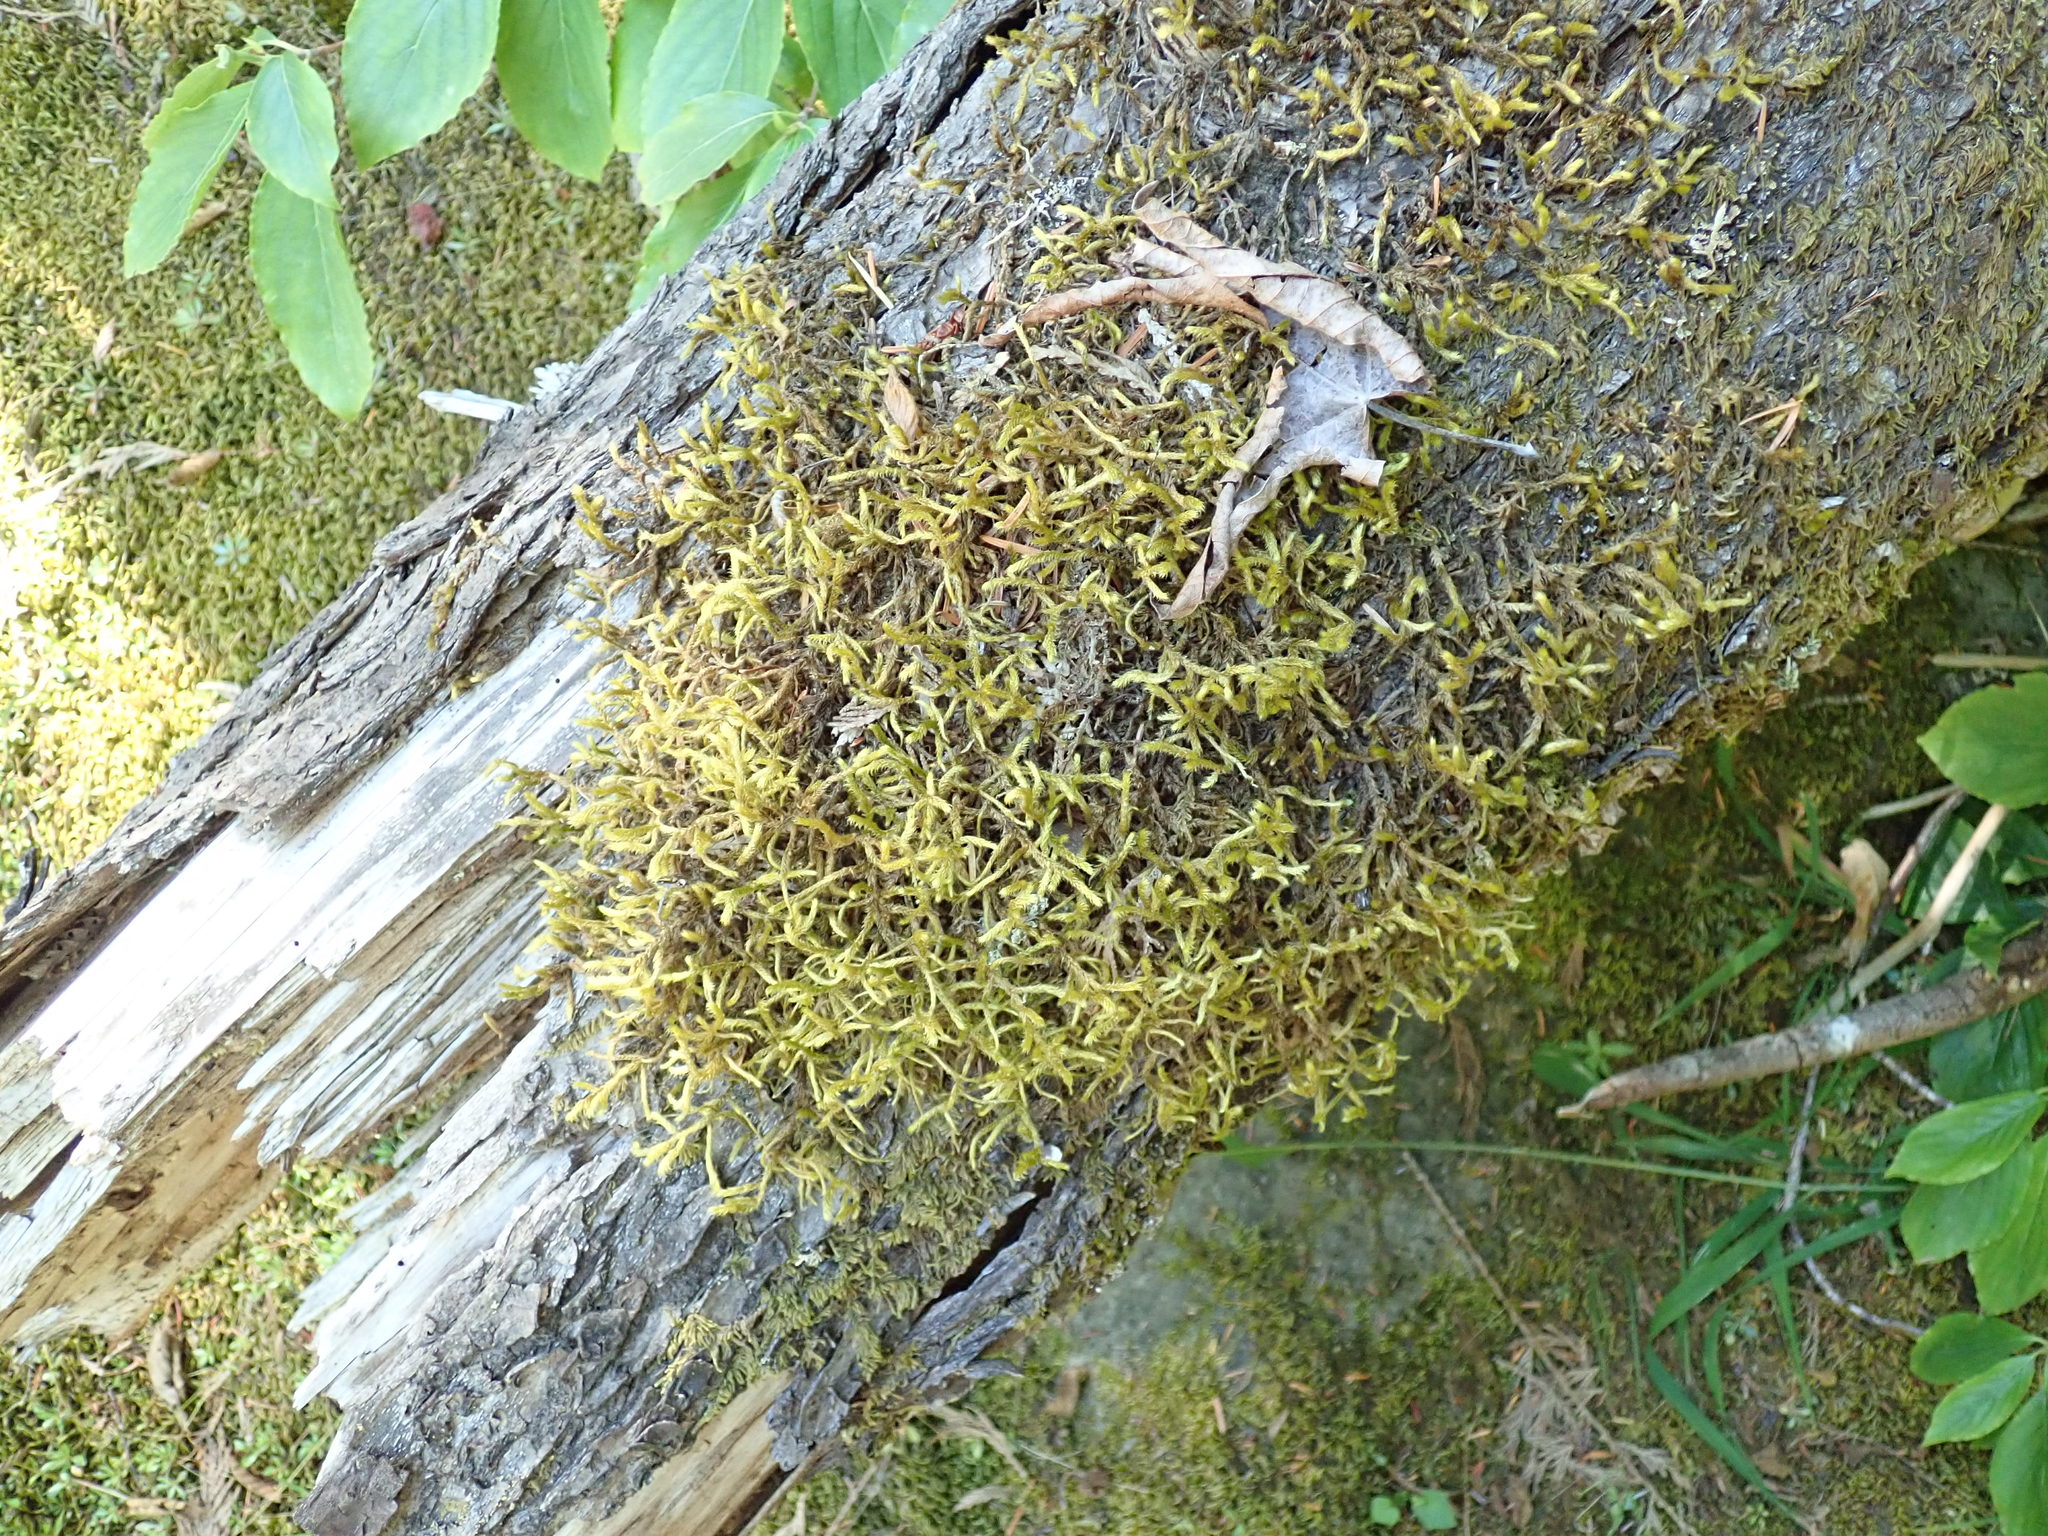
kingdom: Plantae
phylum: Bryophyta
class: Bryopsida
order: Hypnales
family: Antitrichiaceae
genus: Antitrichia
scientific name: Antitrichia curtipendula
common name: Pendulous wing-moss
